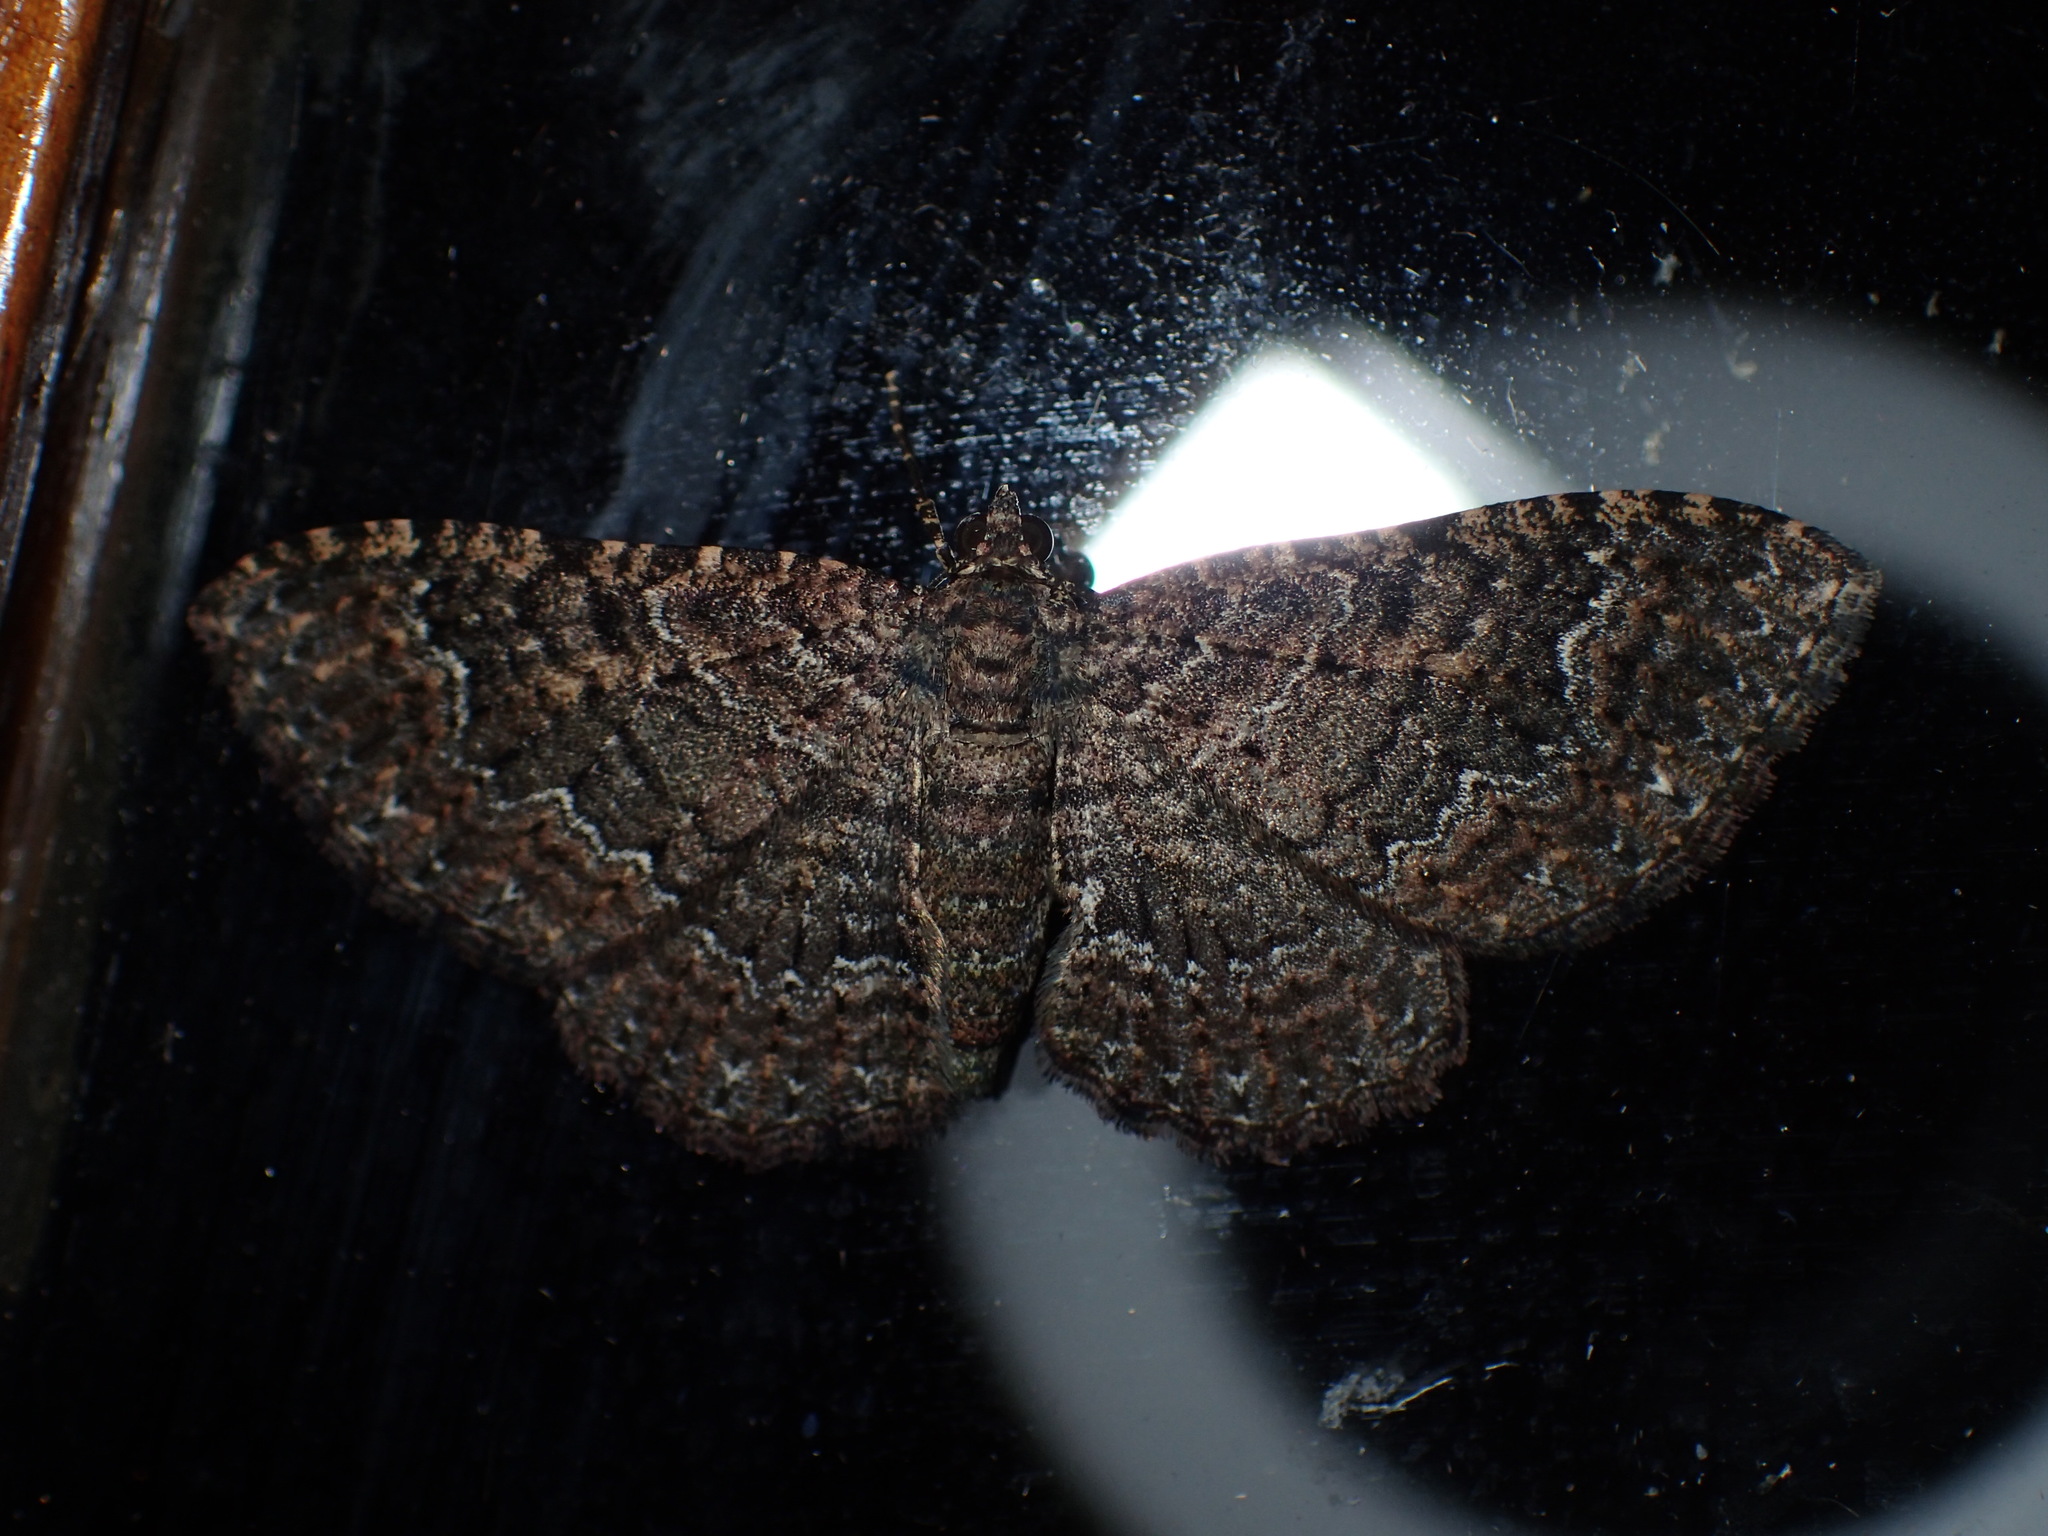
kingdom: Animalia
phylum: Arthropoda
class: Insecta
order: Lepidoptera
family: Geometridae
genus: Disclisioprocta
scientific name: Disclisioprocta stellata
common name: Somber carpet
